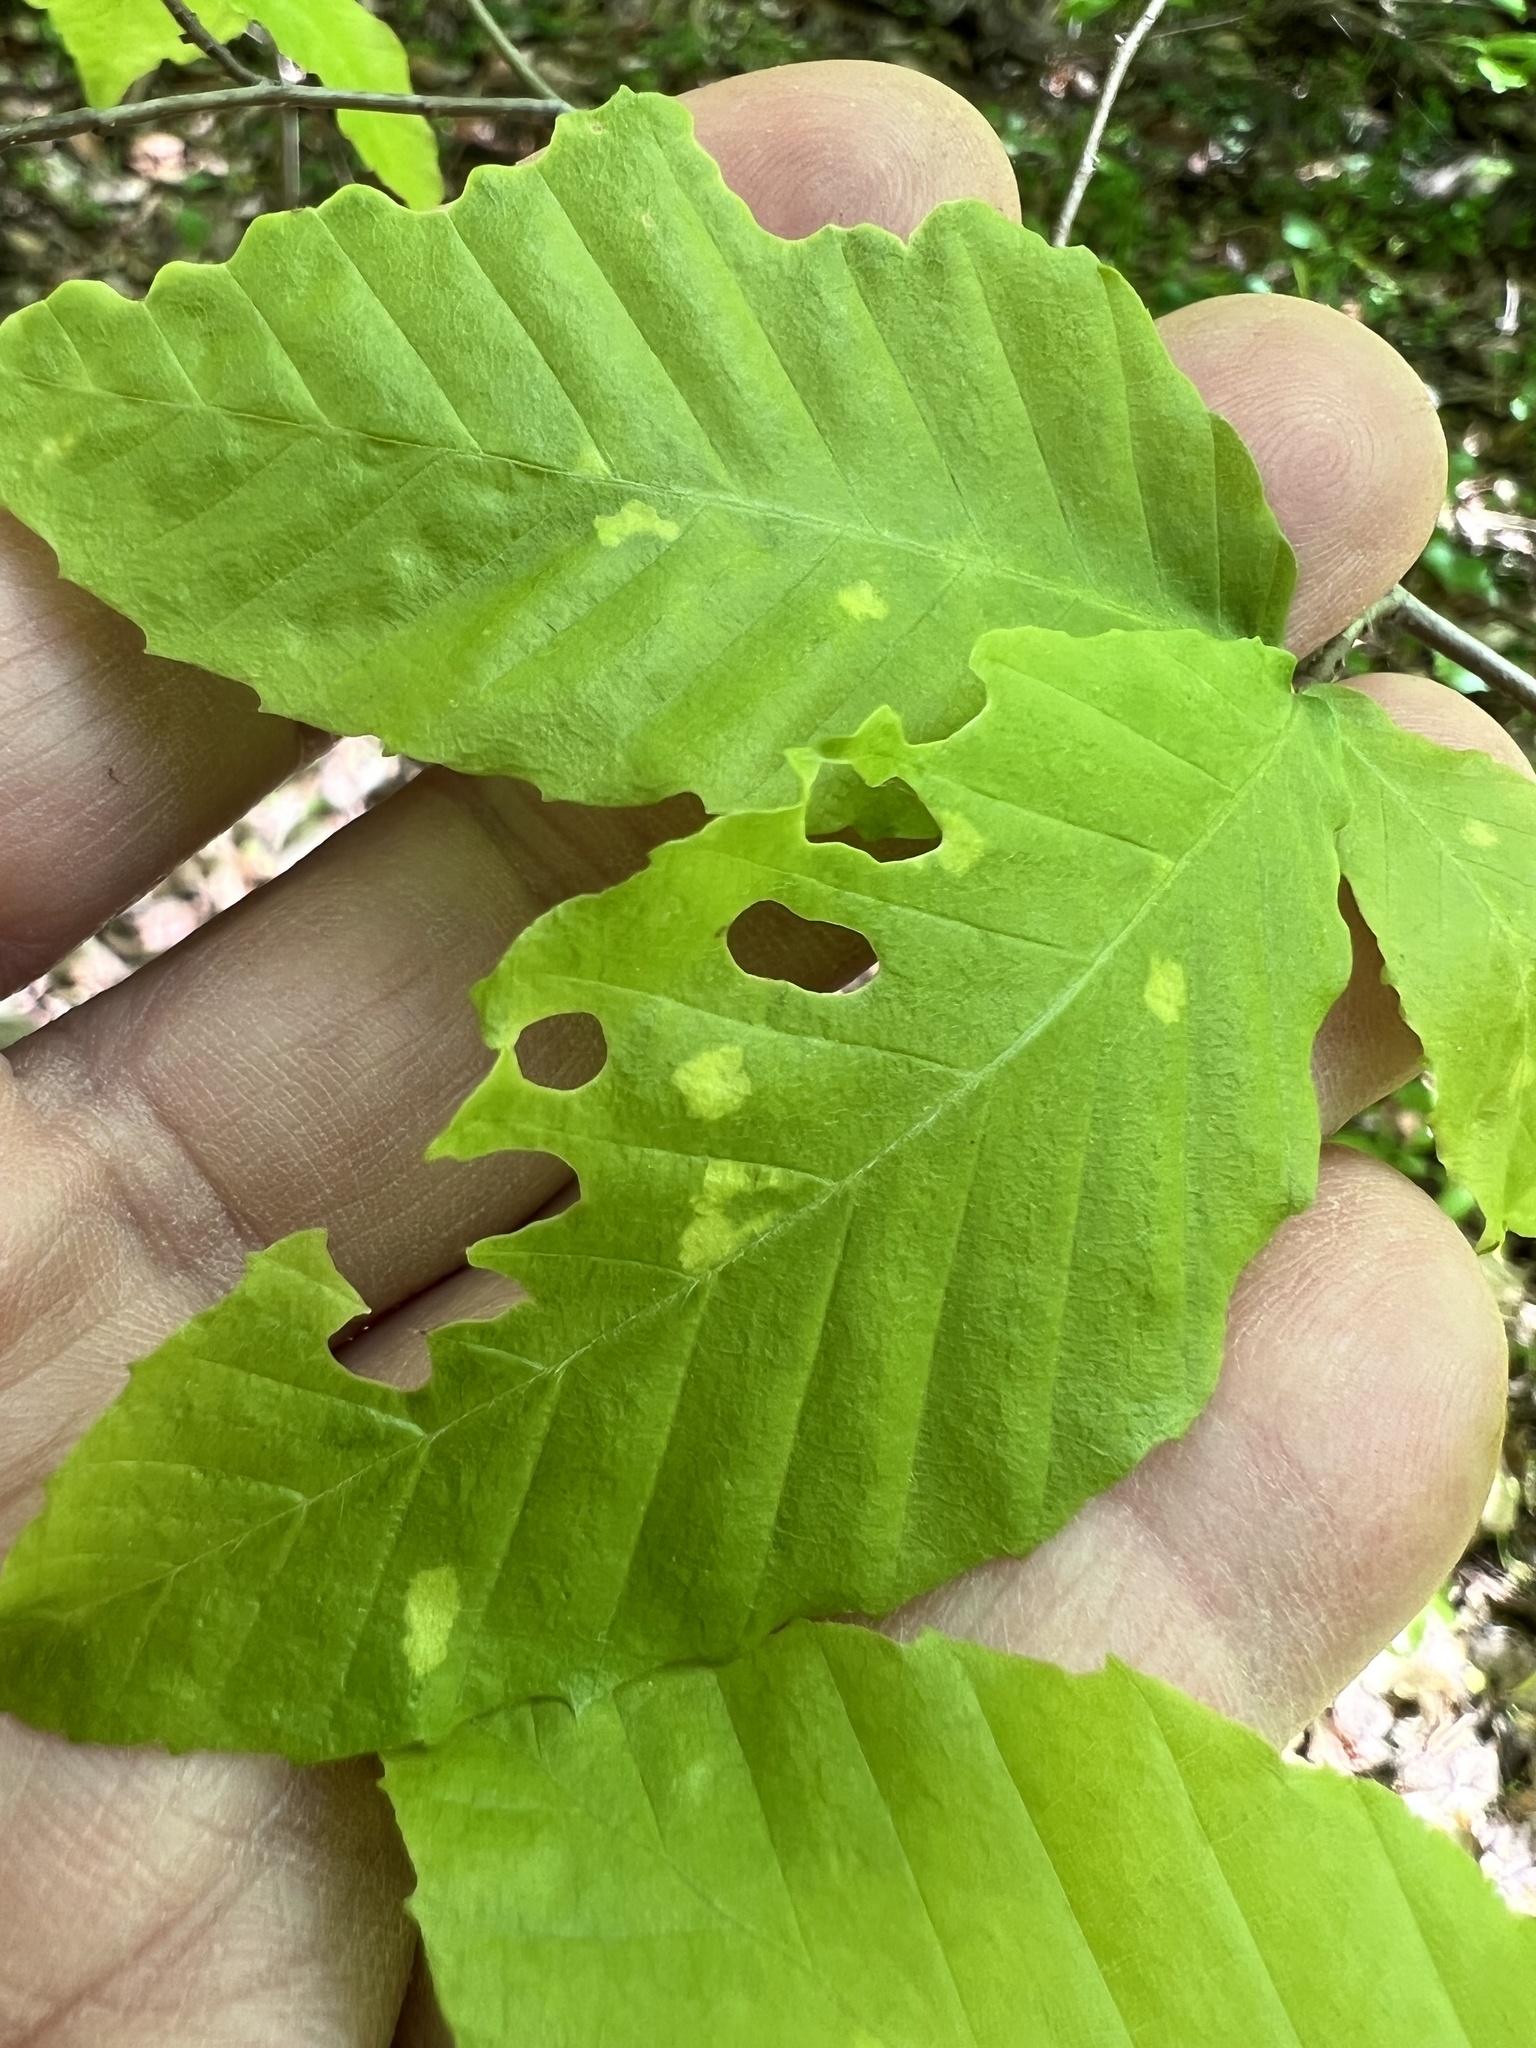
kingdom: Animalia
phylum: Arthropoda
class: Arachnida
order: Trombidiformes
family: Eriophyidae
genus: Acalitus
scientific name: Acalitus
